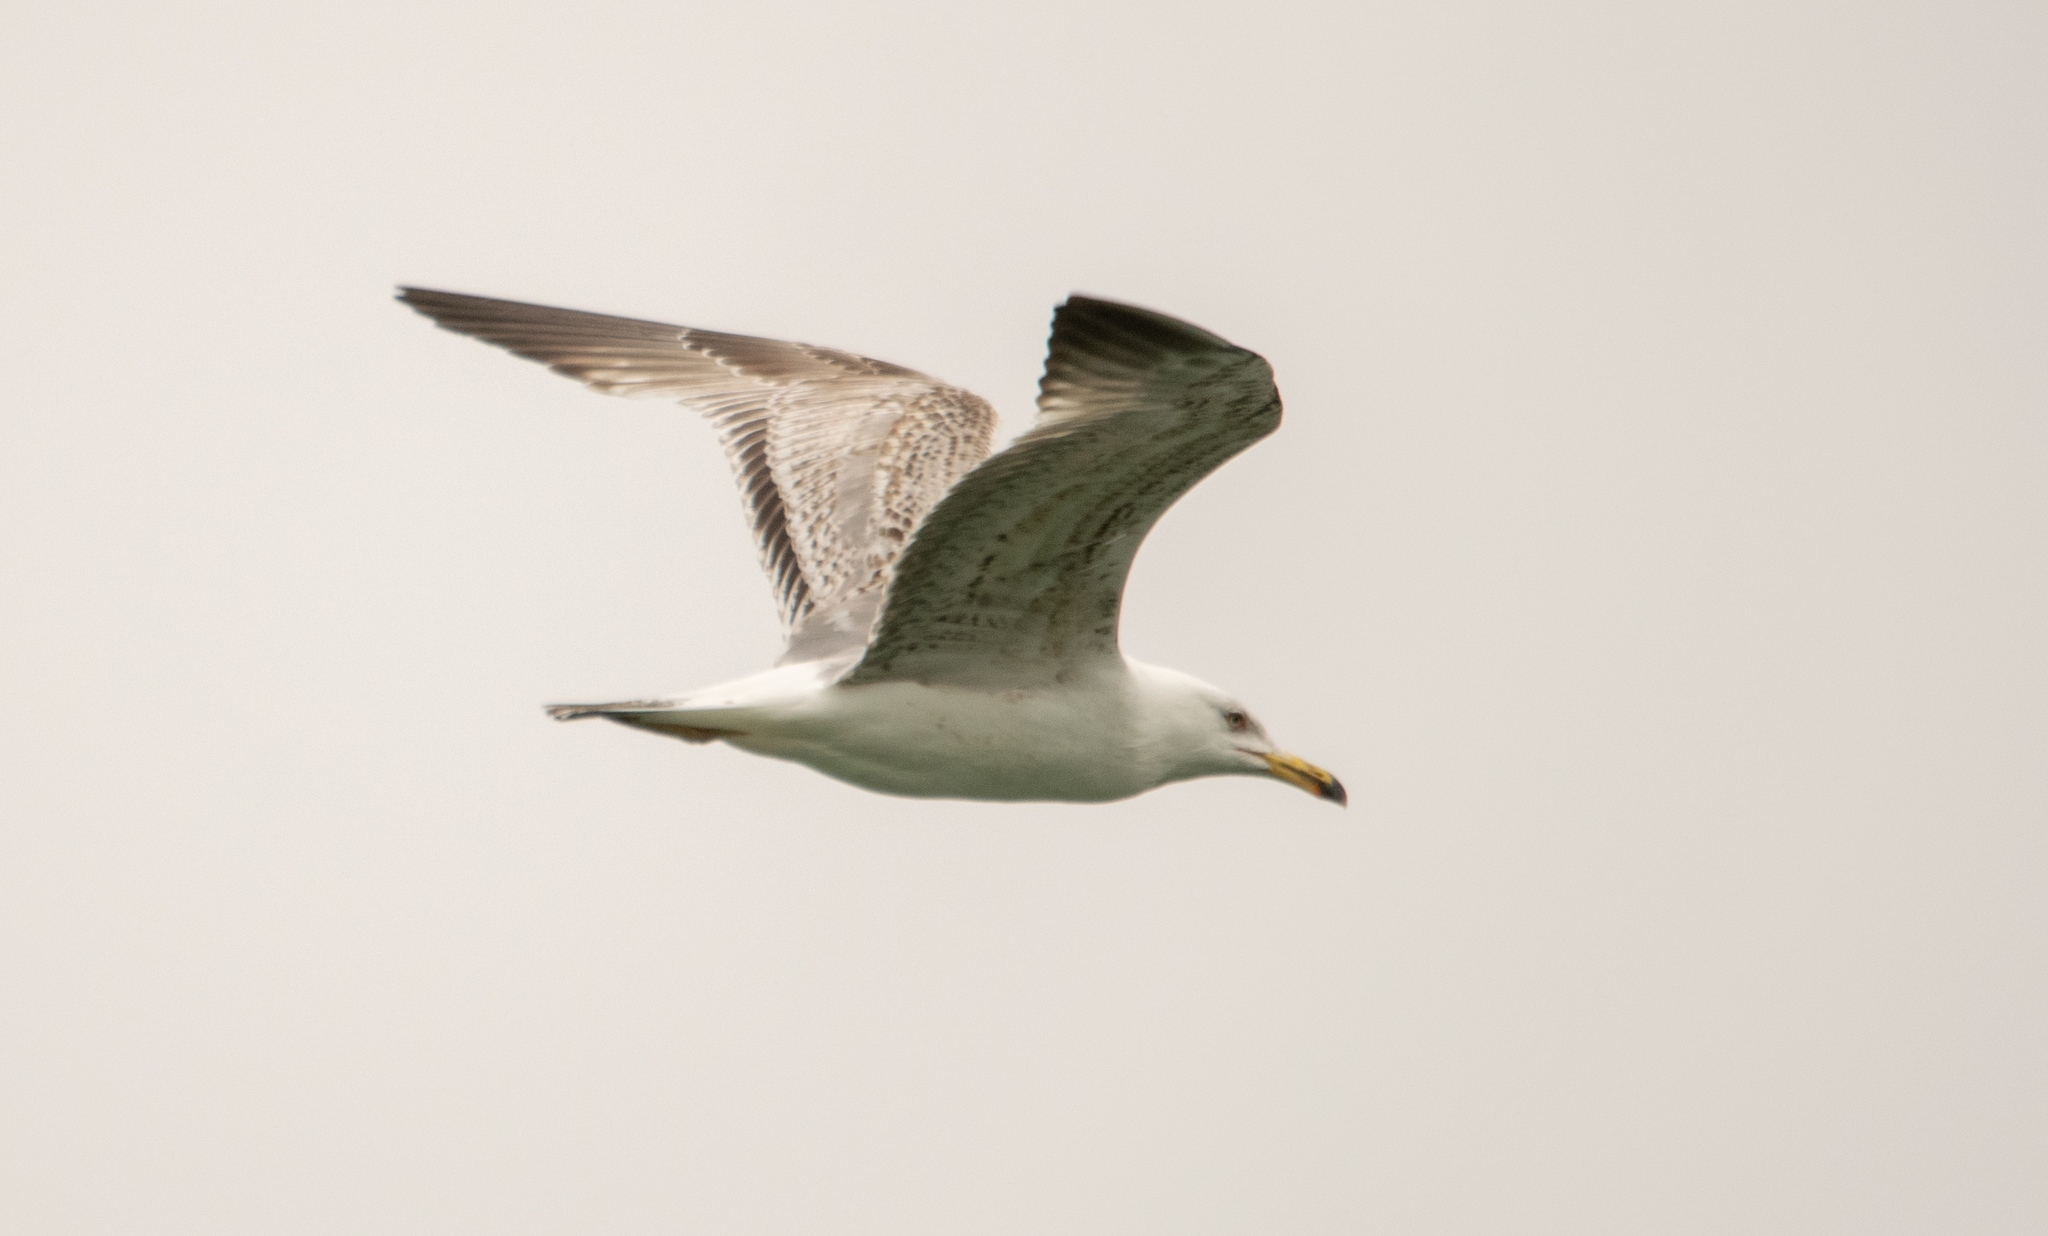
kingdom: Animalia
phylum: Chordata
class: Aves
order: Charadriiformes
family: Laridae
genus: Larus
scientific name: Larus michahellis
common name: Yellow-legged gull
